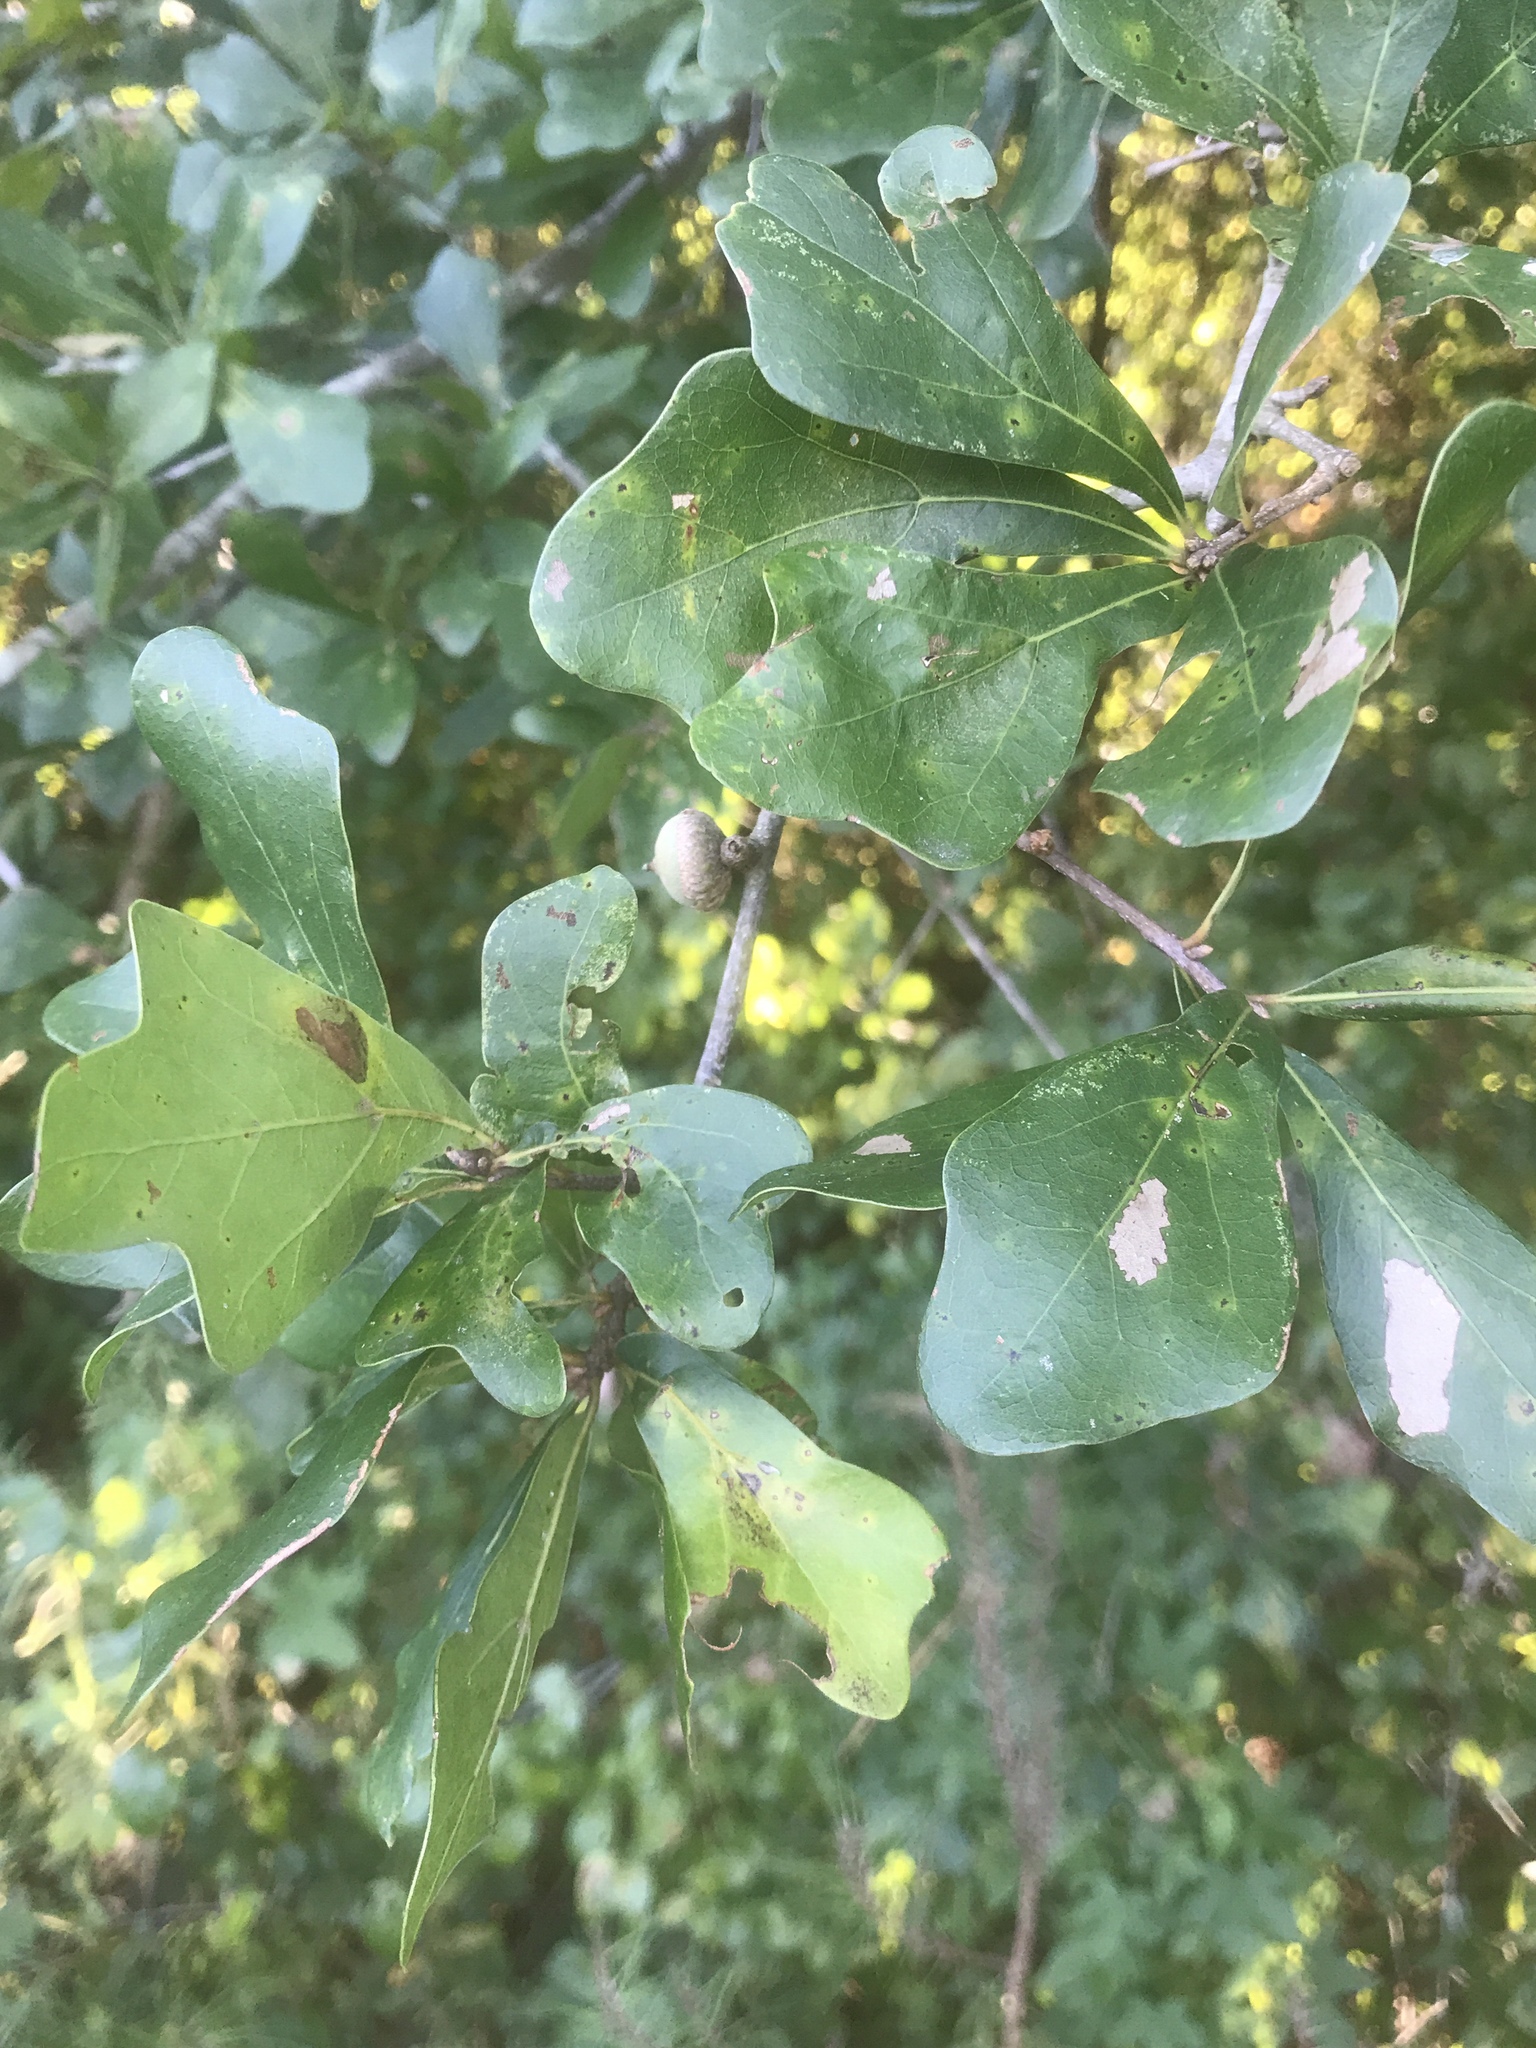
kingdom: Plantae
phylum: Tracheophyta
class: Magnoliopsida
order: Fagales
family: Fagaceae
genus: Quercus
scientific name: Quercus nigra
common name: Water oak
